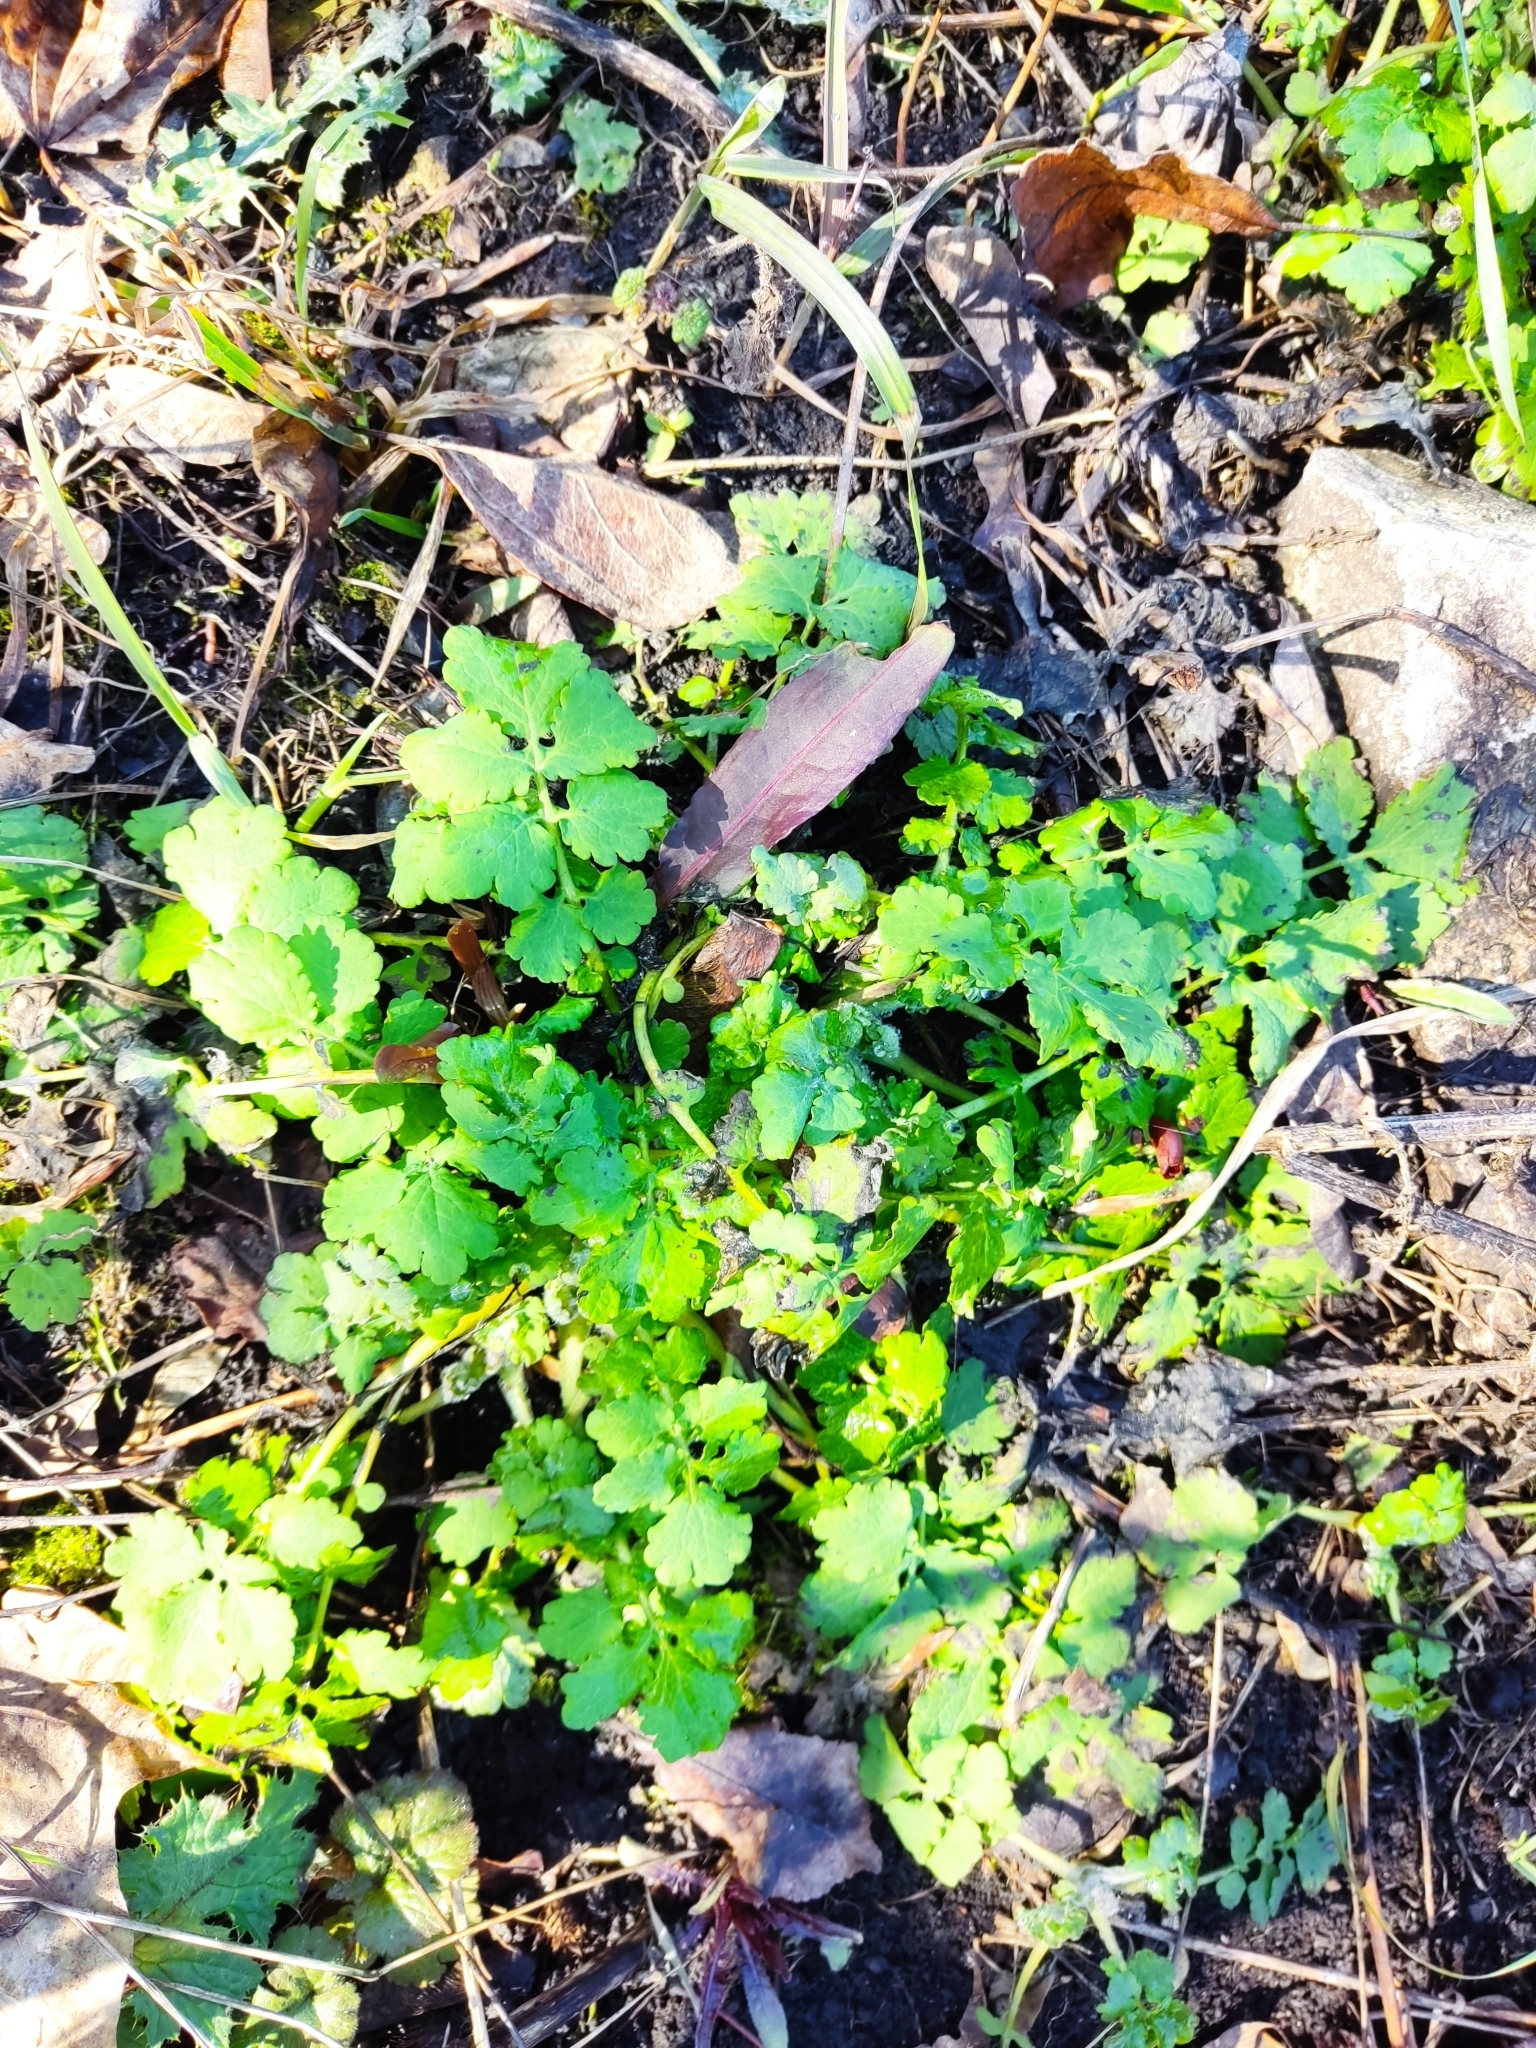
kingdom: Plantae
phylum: Tracheophyta
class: Magnoliopsida
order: Ranunculales
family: Papaveraceae
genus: Chelidonium
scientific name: Chelidonium majus
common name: Greater celandine
